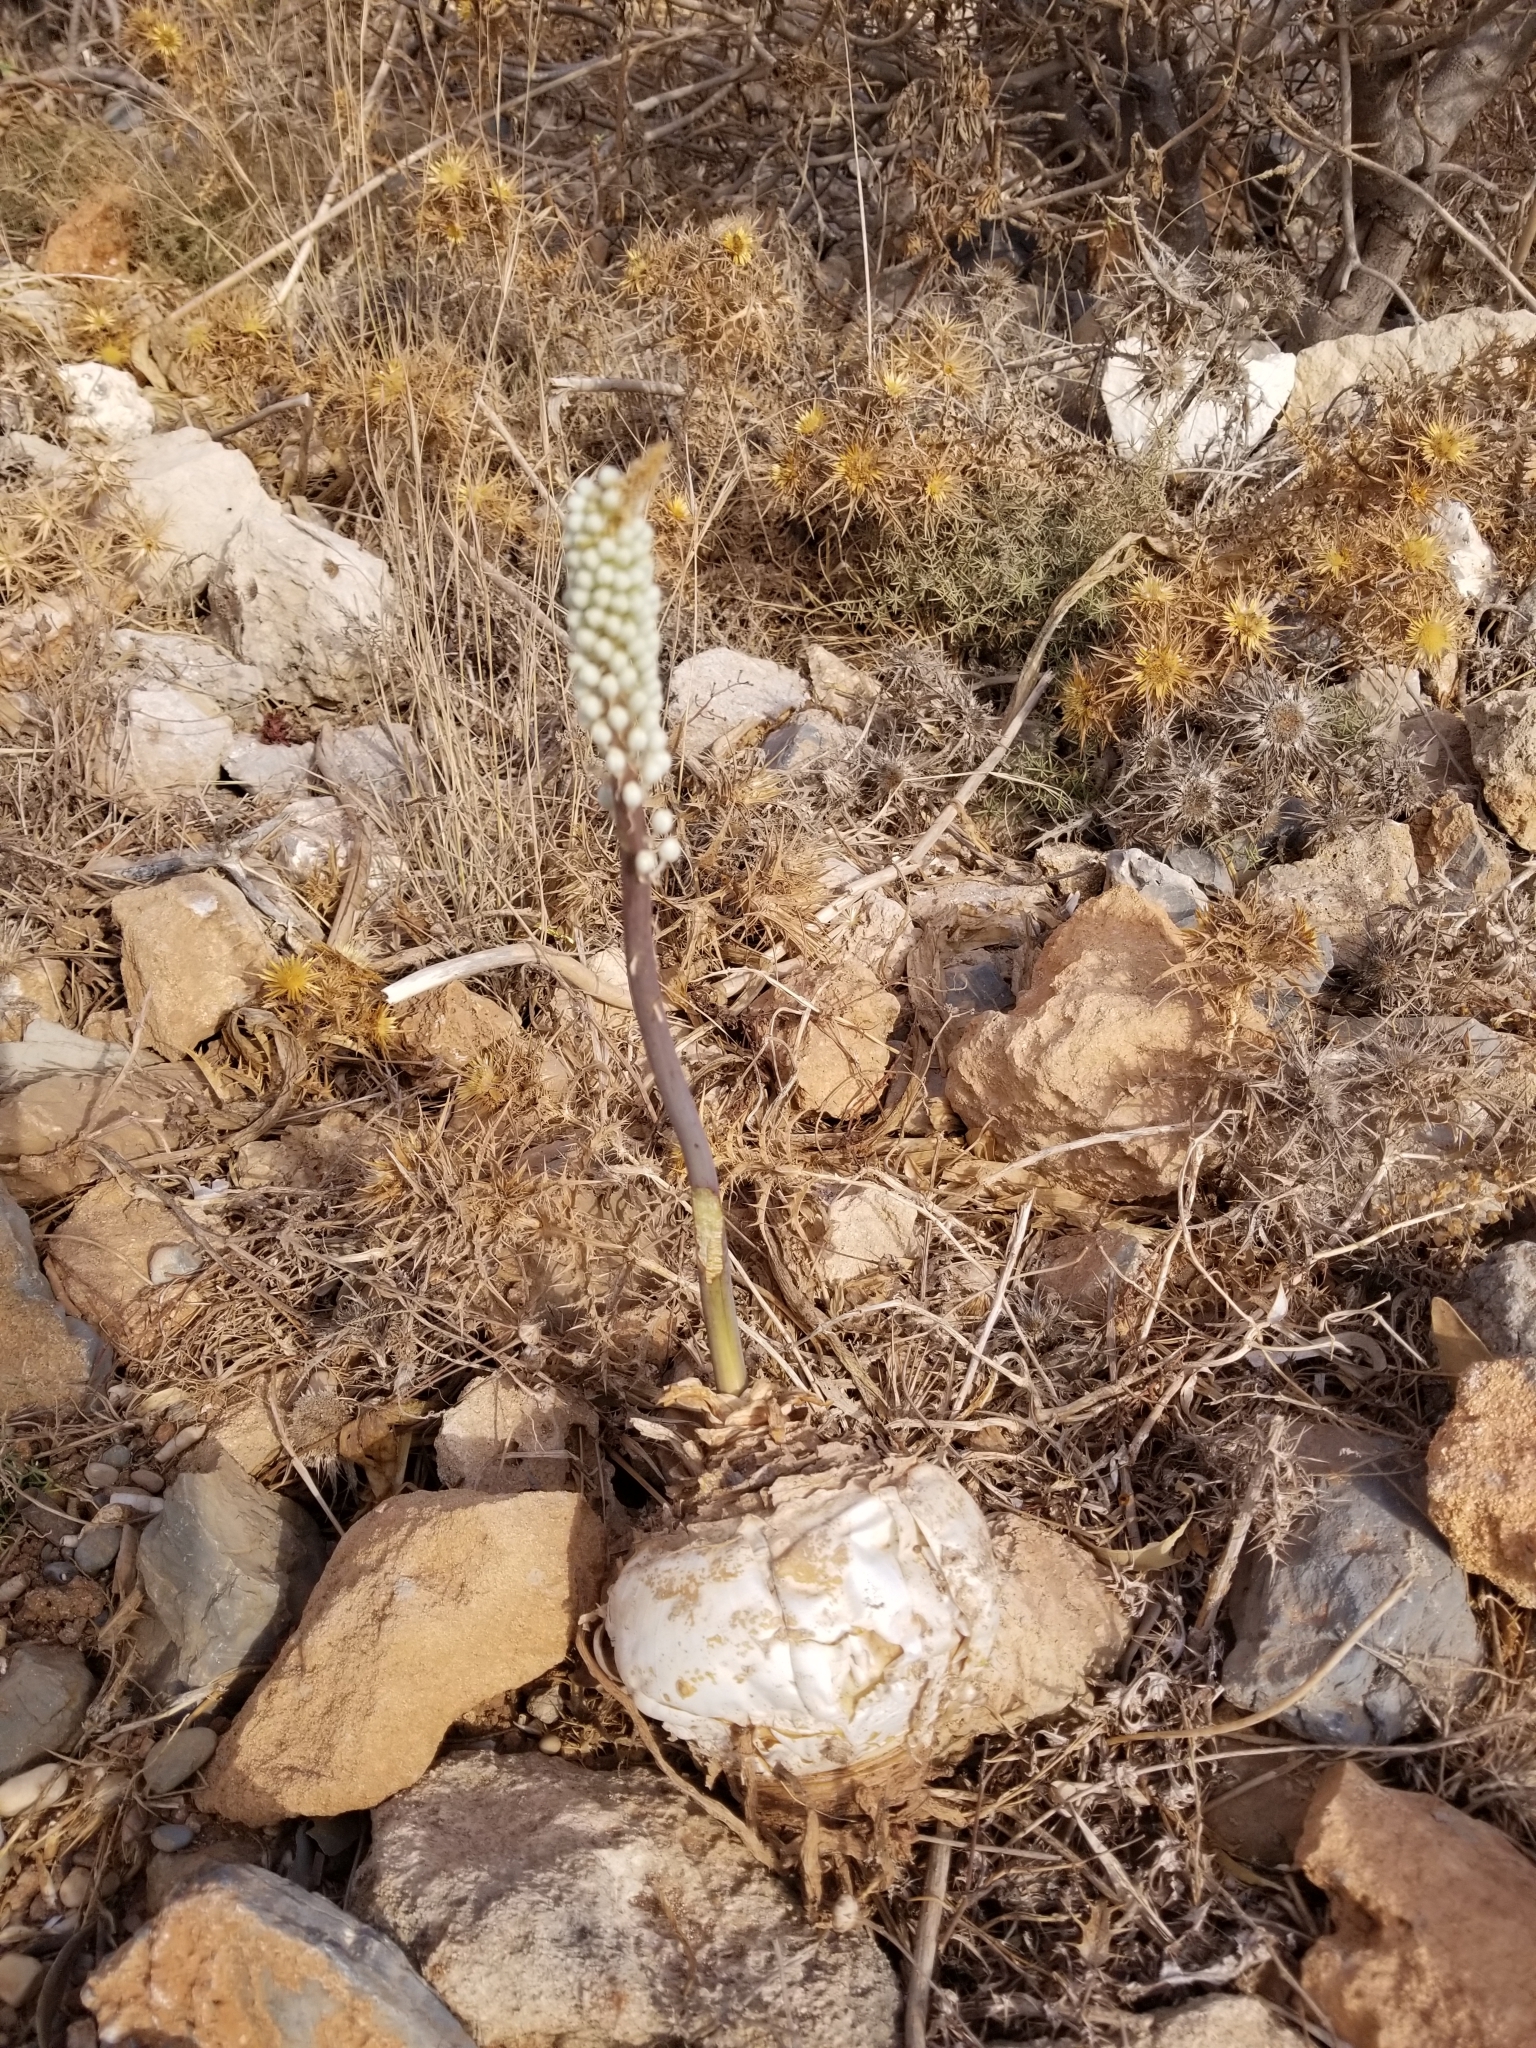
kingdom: Plantae
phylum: Tracheophyta
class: Liliopsida
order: Asparagales
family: Asparagaceae
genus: Drimia
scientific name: Drimia numidica
